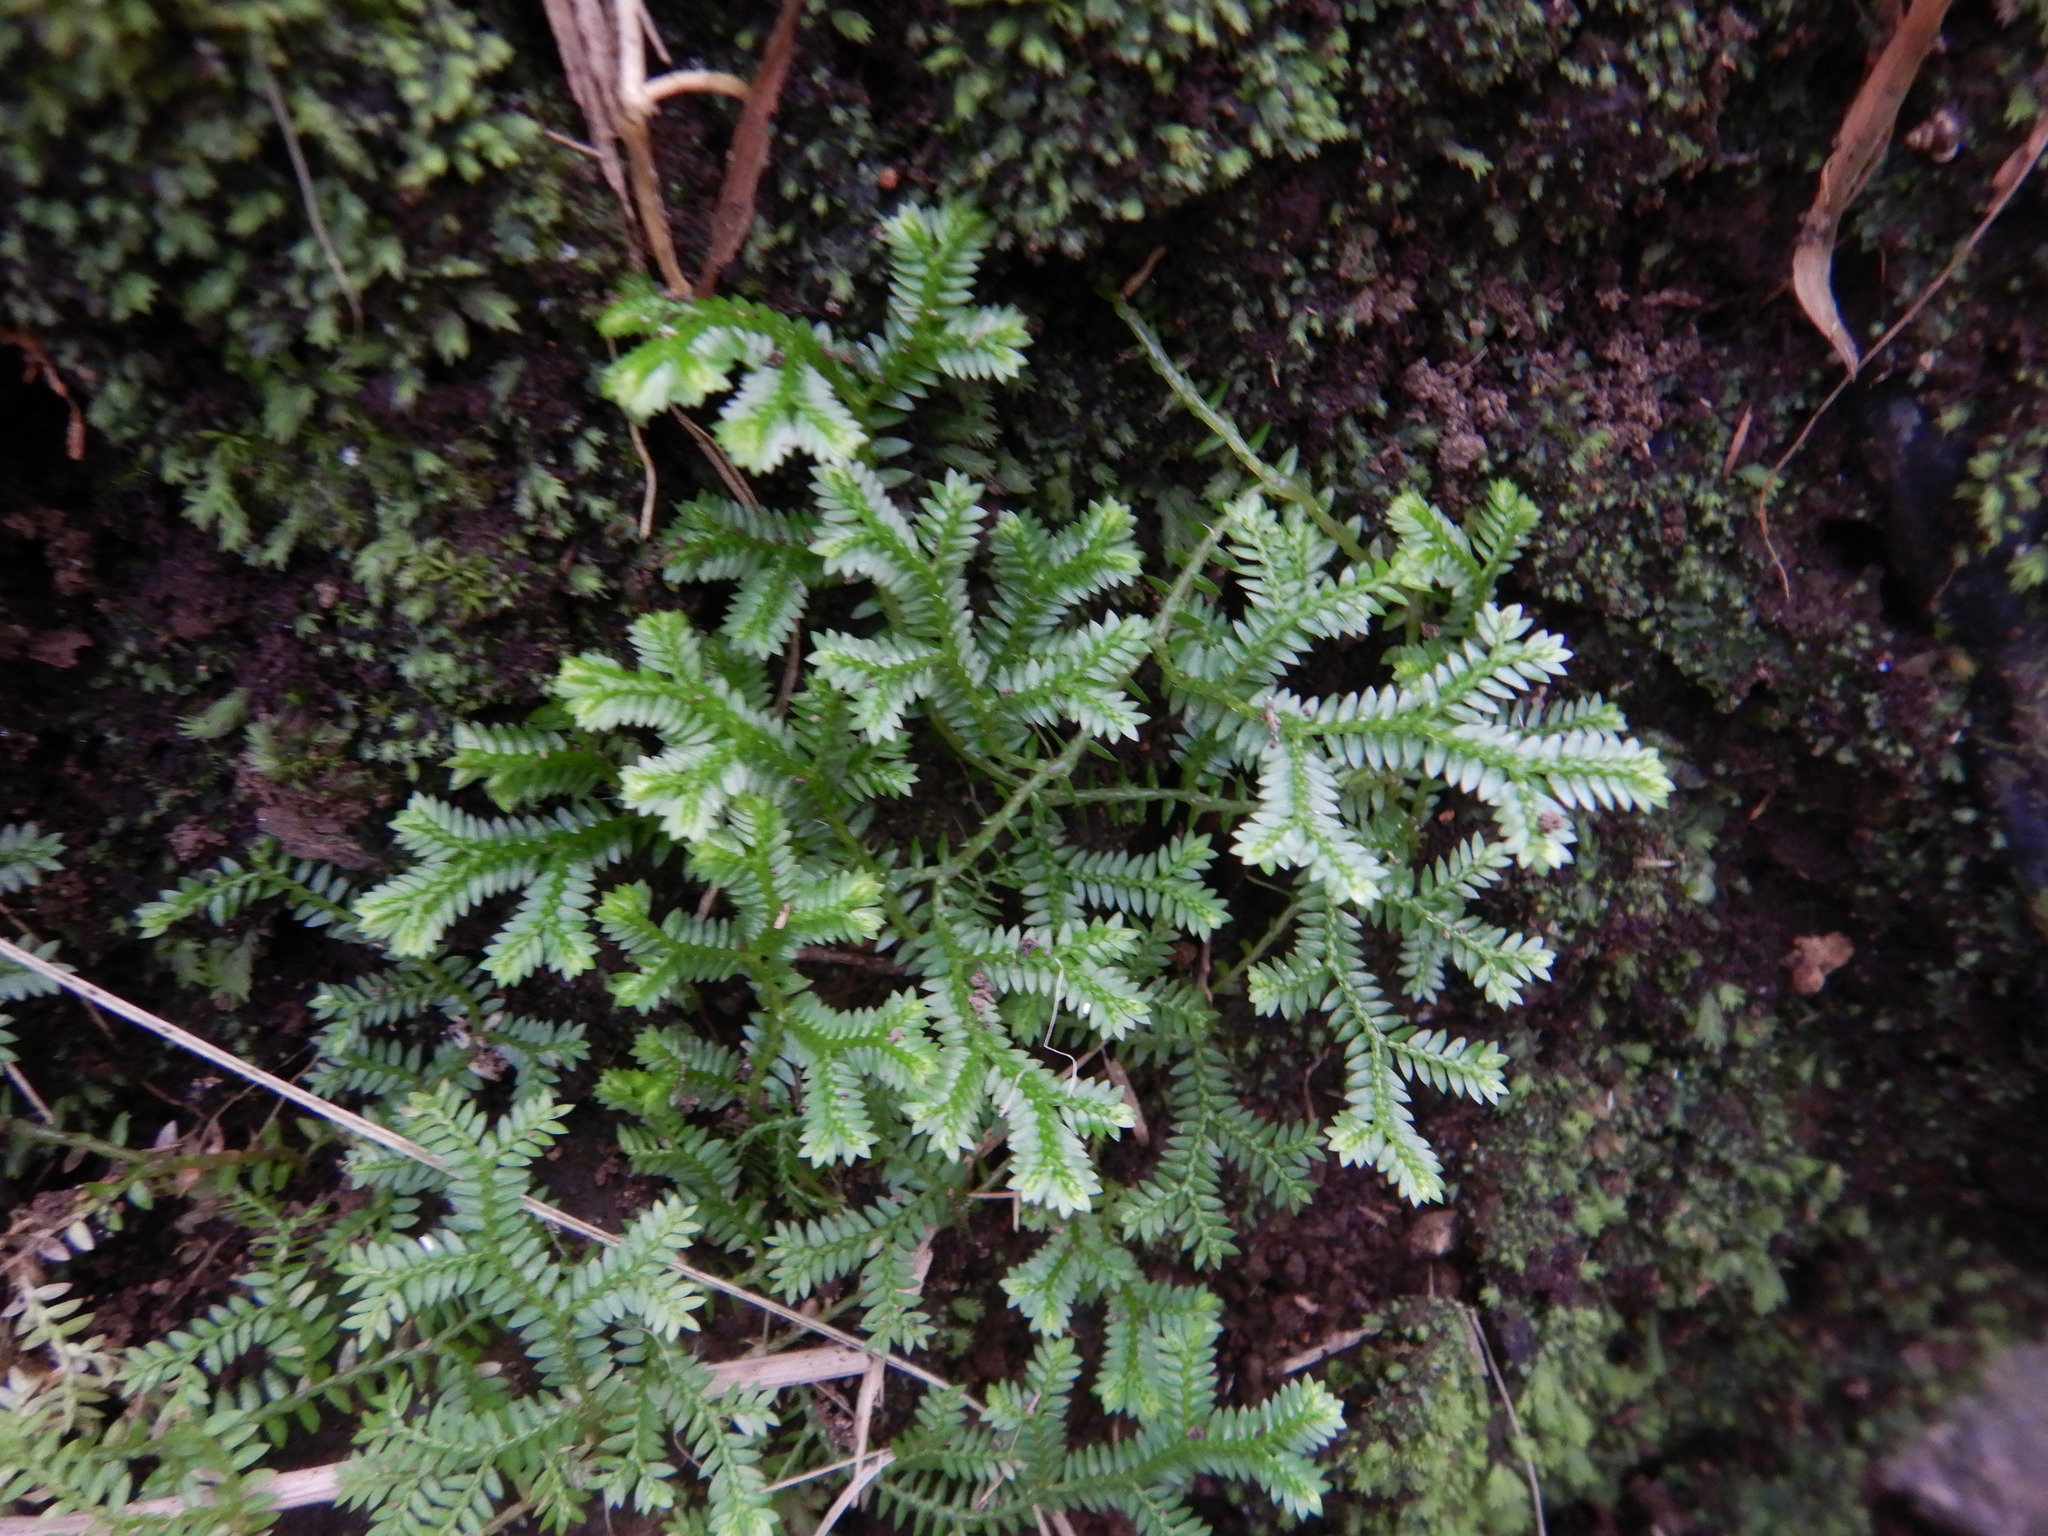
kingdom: Plantae
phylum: Tracheophyta
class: Lycopodiopsida
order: Selaginellales
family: Selaginellaceae
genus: Selaginella
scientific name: Selaginella kraussiana
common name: Krauss' spikemoss
